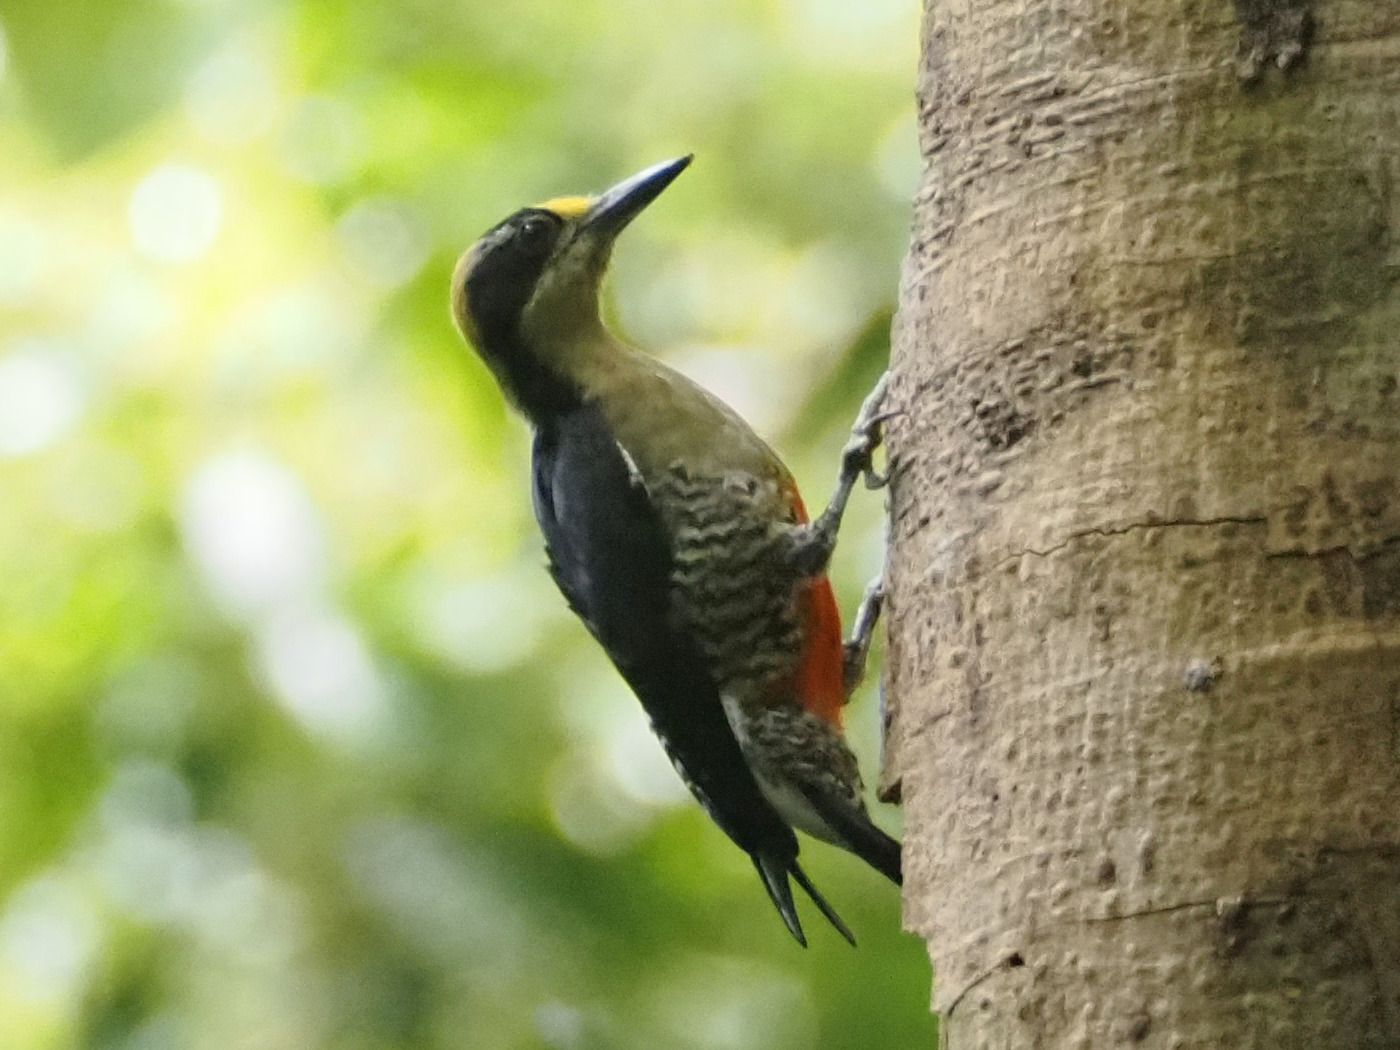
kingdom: Animalia
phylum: Chordata
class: Aves
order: Piciformes
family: Picidae
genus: Melanerpes
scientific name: Melanerpes chrysauchen
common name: Golden-naped woodpecker
